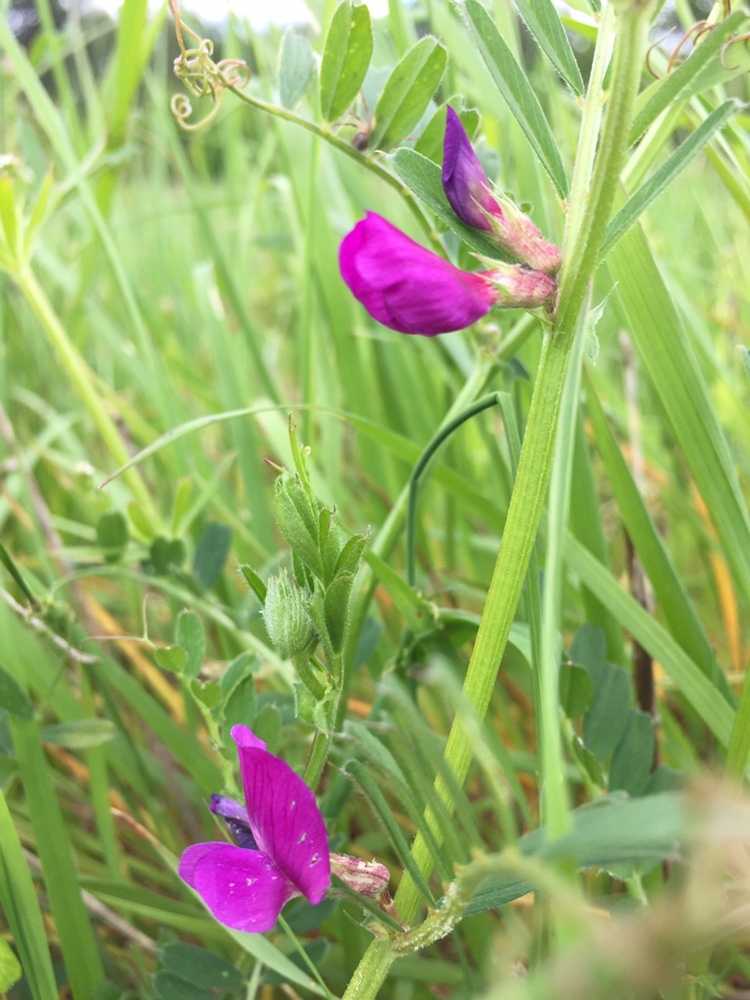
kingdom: Plantae
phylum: Tracheophyta
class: Magnoliopsida
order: Fabales
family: Fabaceae
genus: Vicia
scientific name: Vicia sativa
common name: Garden vetch
